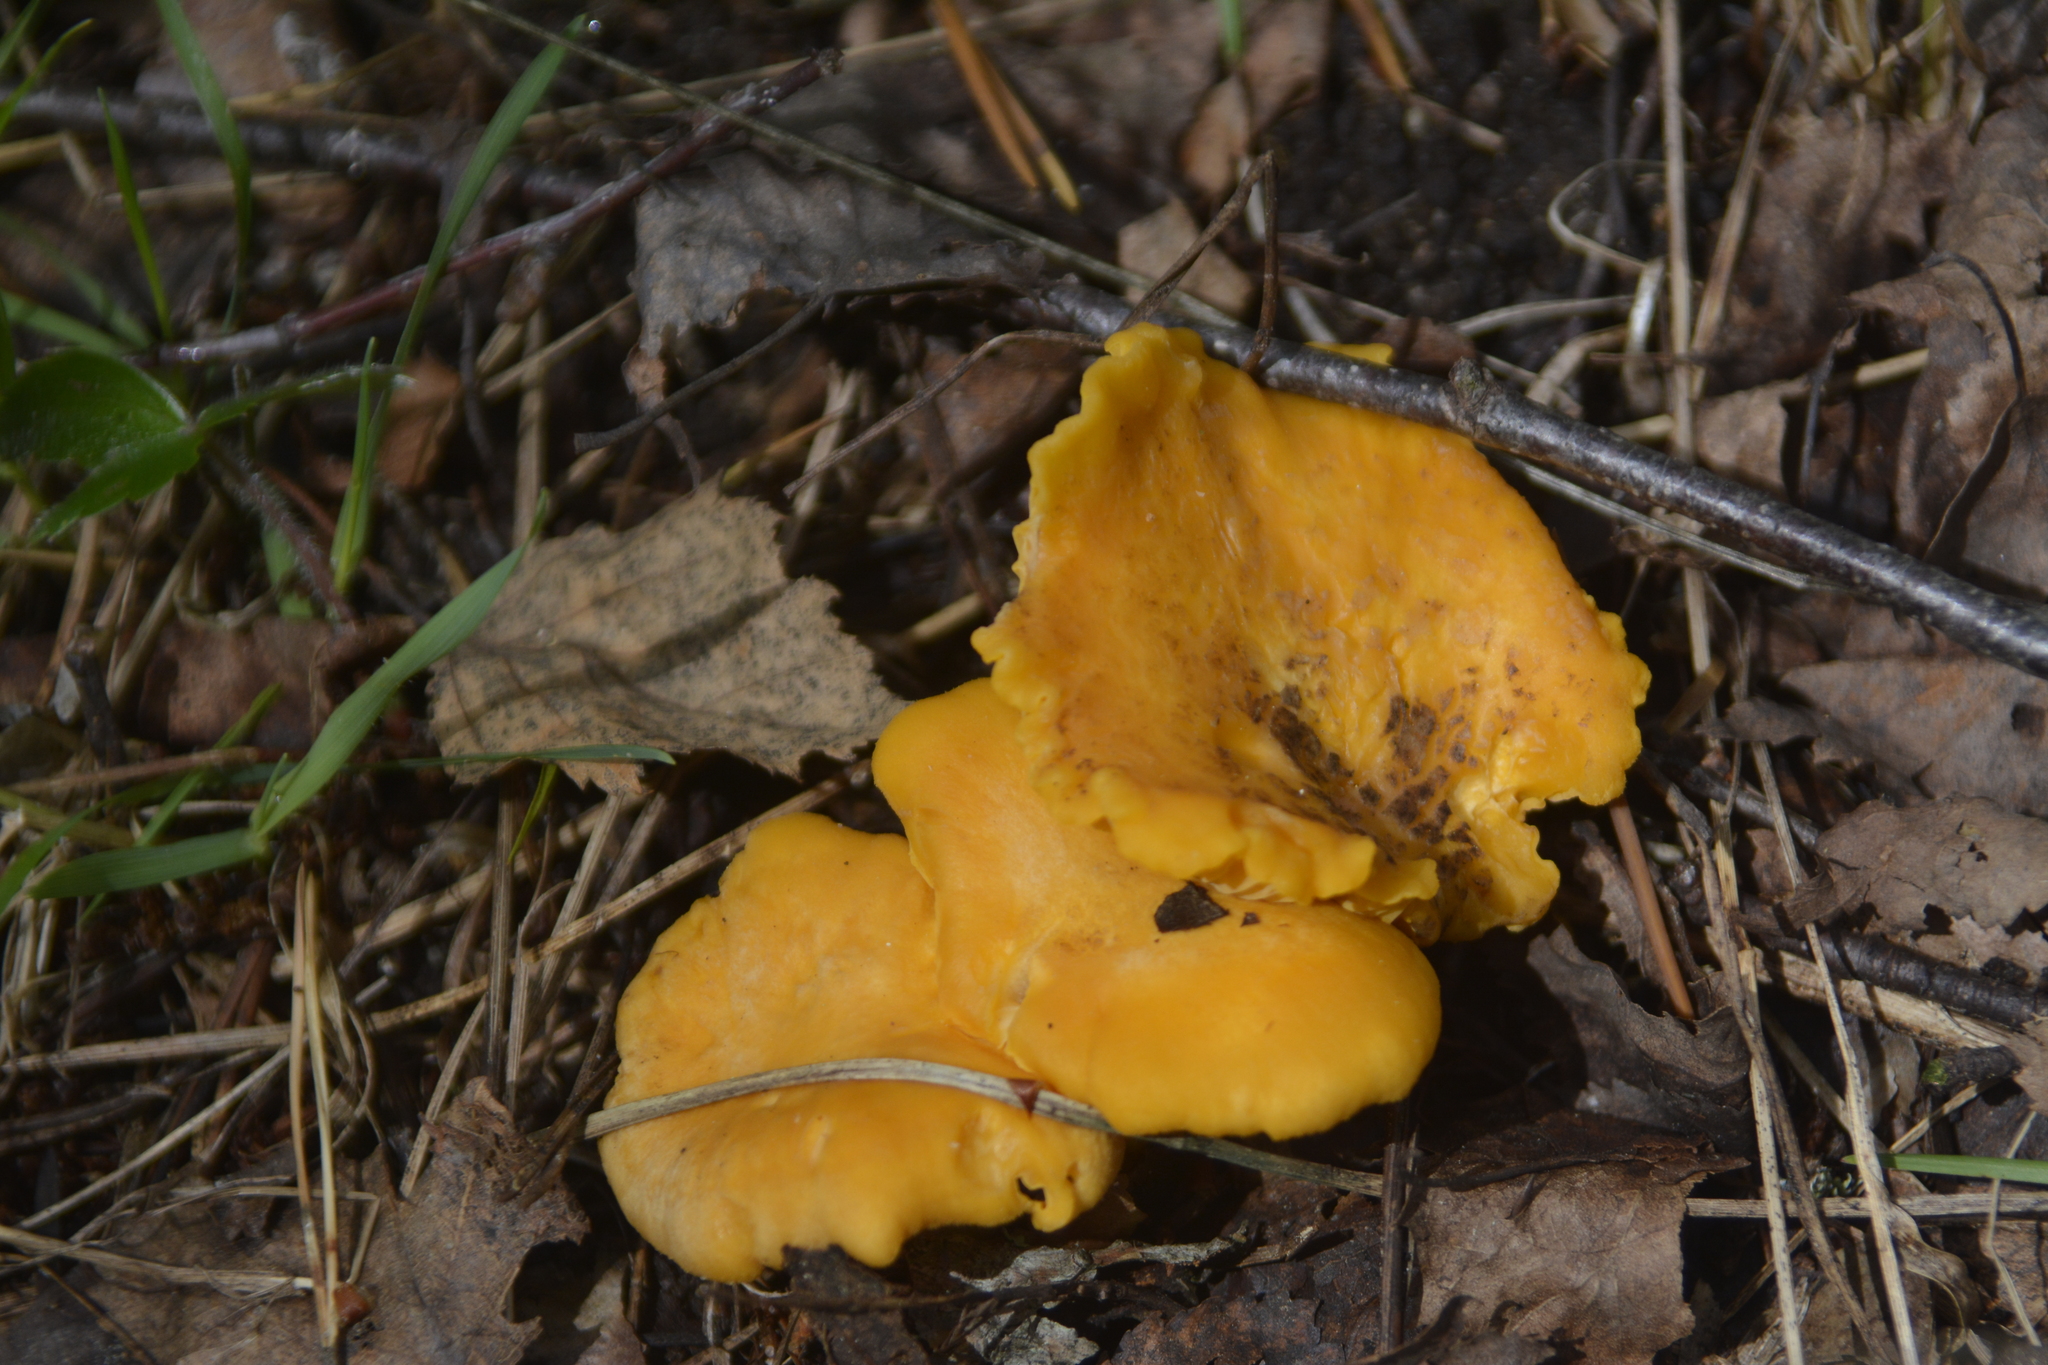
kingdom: Fungi
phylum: Basidiomycota
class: Agaricomycetes
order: Cantharellales
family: Hydnaceae
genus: Cantharellus
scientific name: Cantharellus cibarius
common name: Chanterelle
